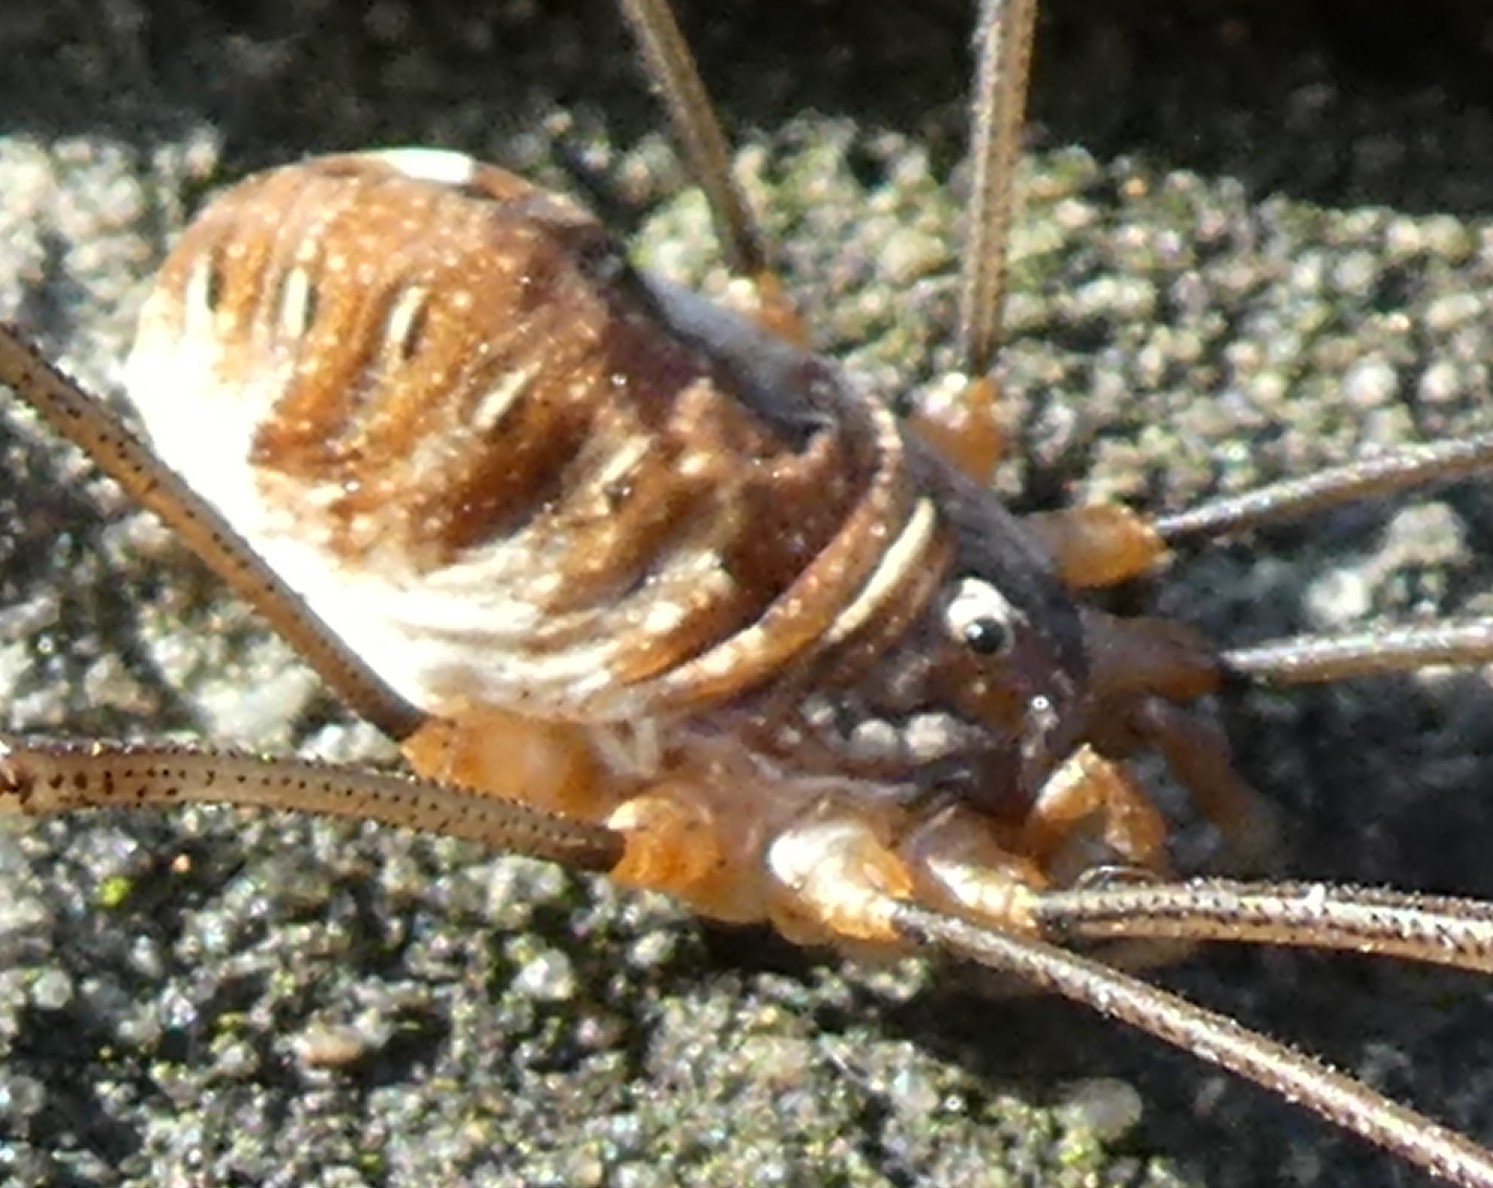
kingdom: Animalia
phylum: Arthropoda
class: Arachnida
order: Opiliones
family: Phalangiidae
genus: Opilio
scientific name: Opilio canestrinii
